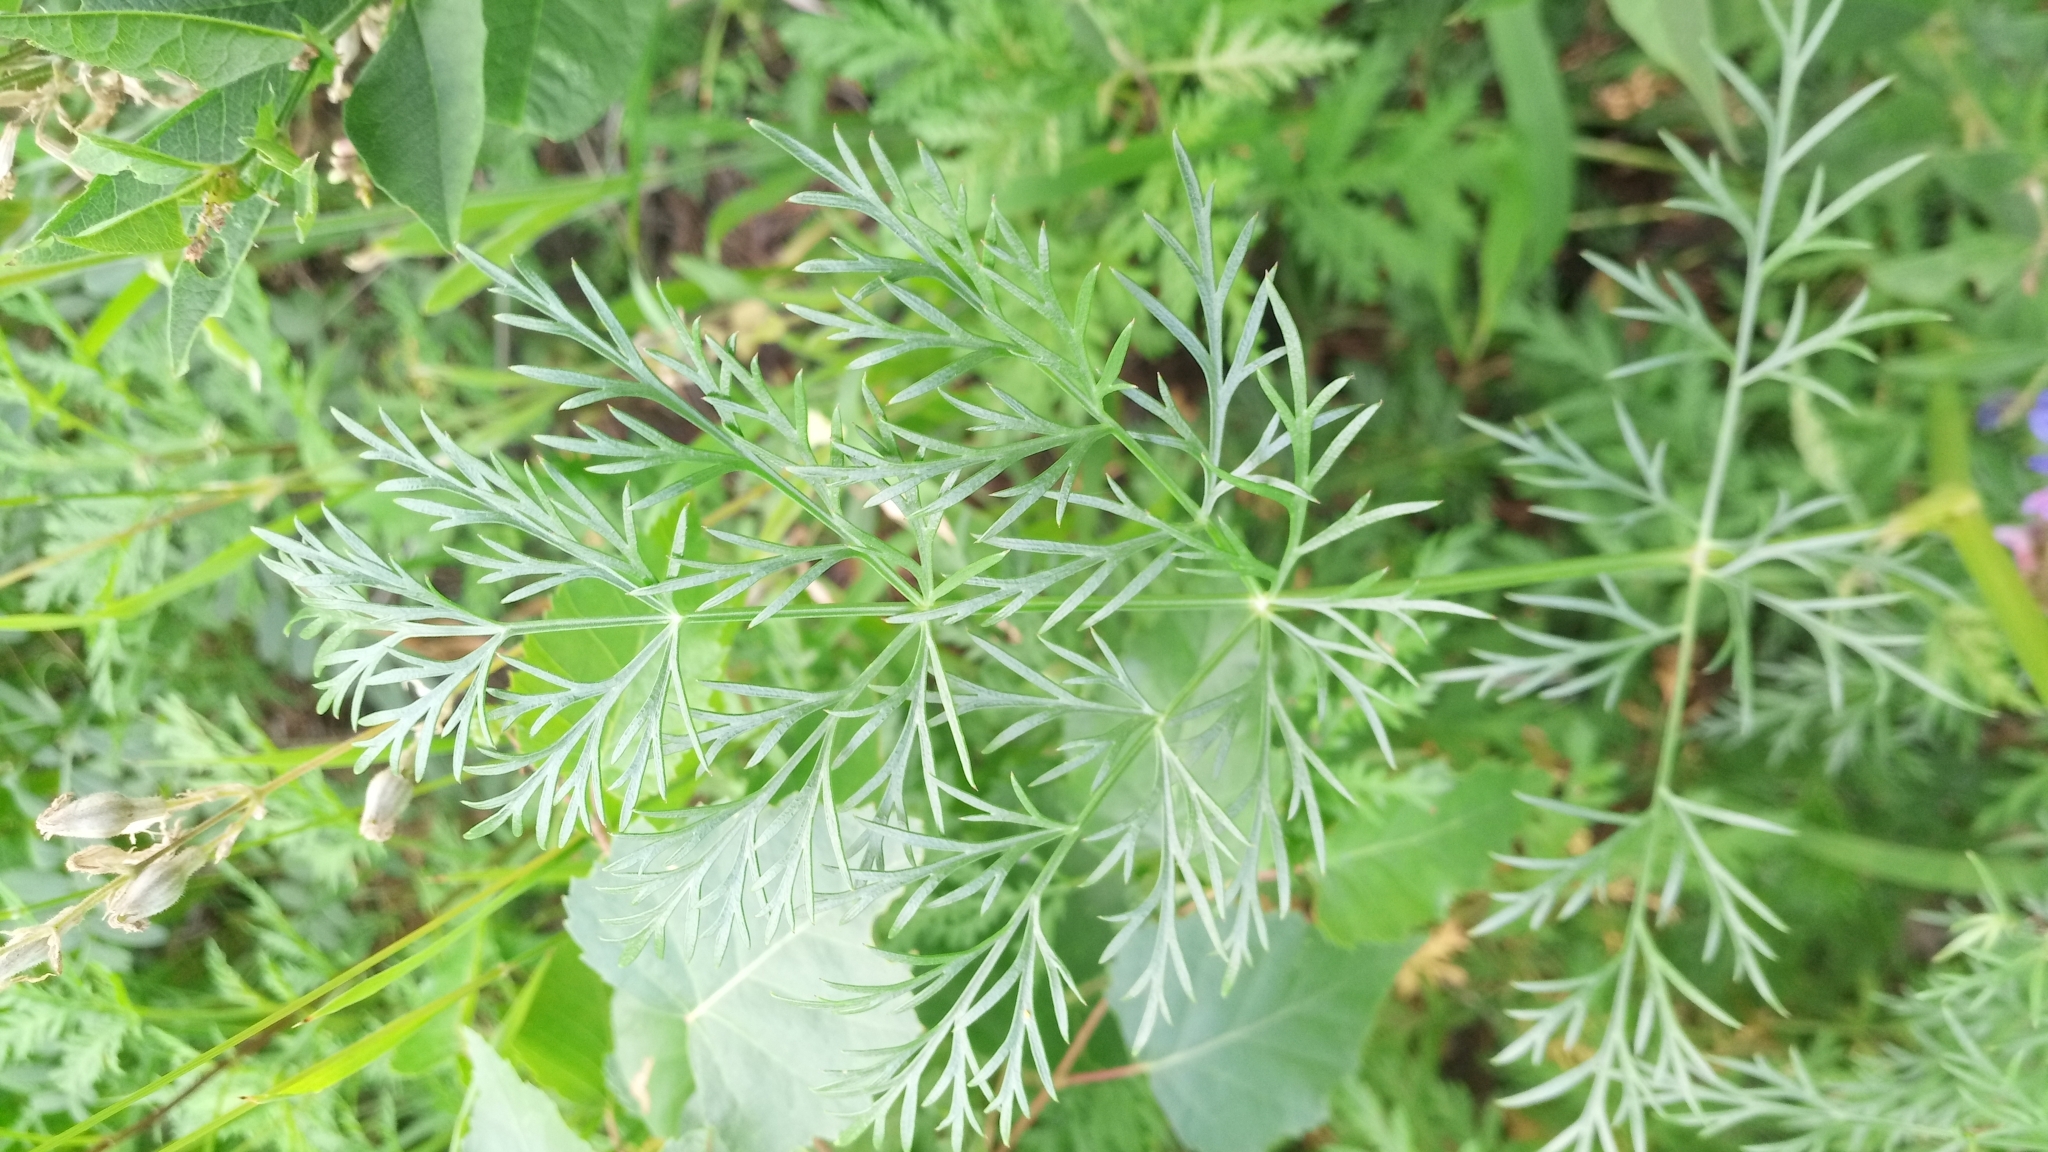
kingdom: Plantae
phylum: Tracheophyta
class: Magnoliopsida
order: Apiales
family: Apiaceae
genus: Kitagawia
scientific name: Kitagawia baicalensis
